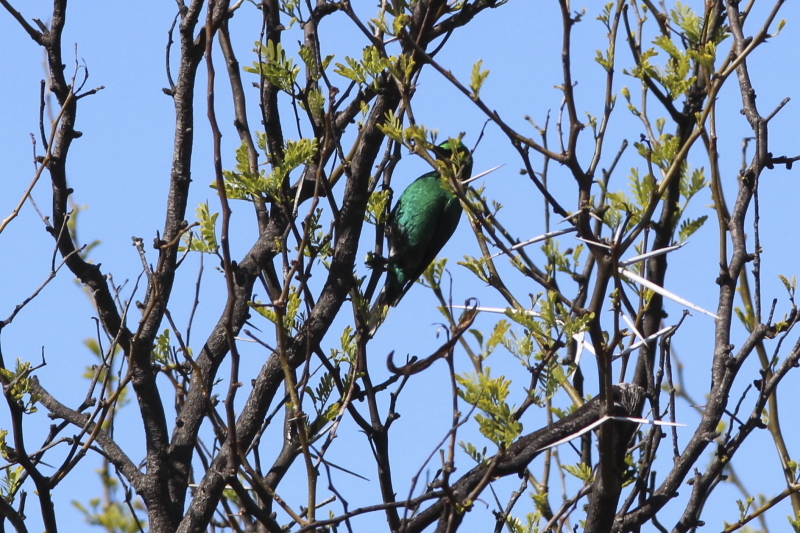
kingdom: Animalia
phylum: Chordata
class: Aves
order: Passeriformes
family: Nectariniidae
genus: Nectarinia
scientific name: Nectarinia famosa
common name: Malachite sunbird
